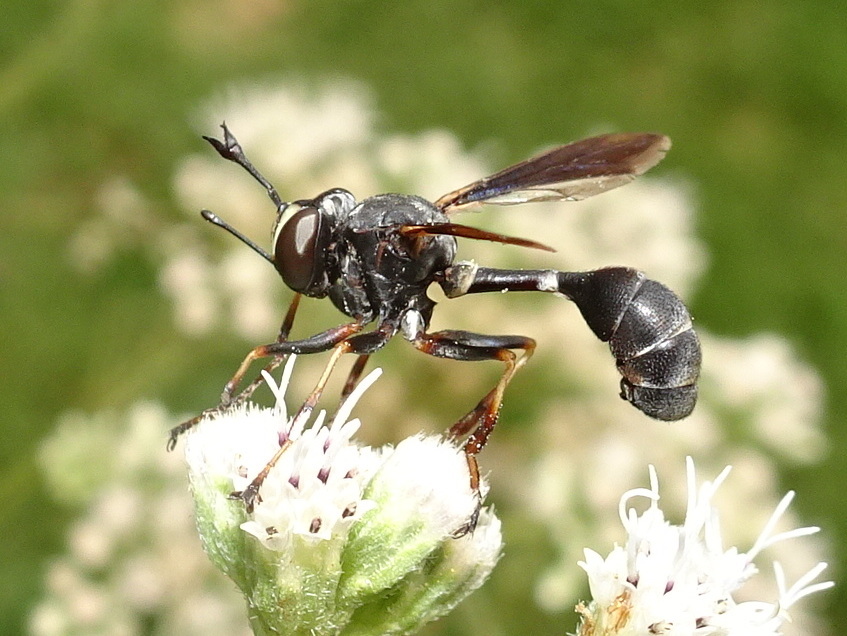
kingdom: Animalia
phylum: Arthropoda
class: Insecta
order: Diptera
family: Conopidae
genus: Physocephala
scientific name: Physocephala tibialis
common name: Common eastern physocephala
